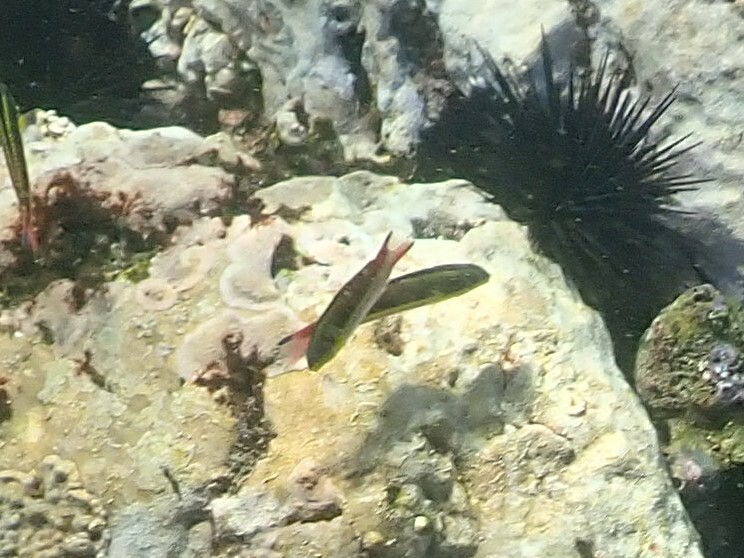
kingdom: Animalia
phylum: Chordata
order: Perciformes
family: Labridae
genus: Thalassoma
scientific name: Thalassoma lucasanum
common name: Cortez rainbow wrasse
